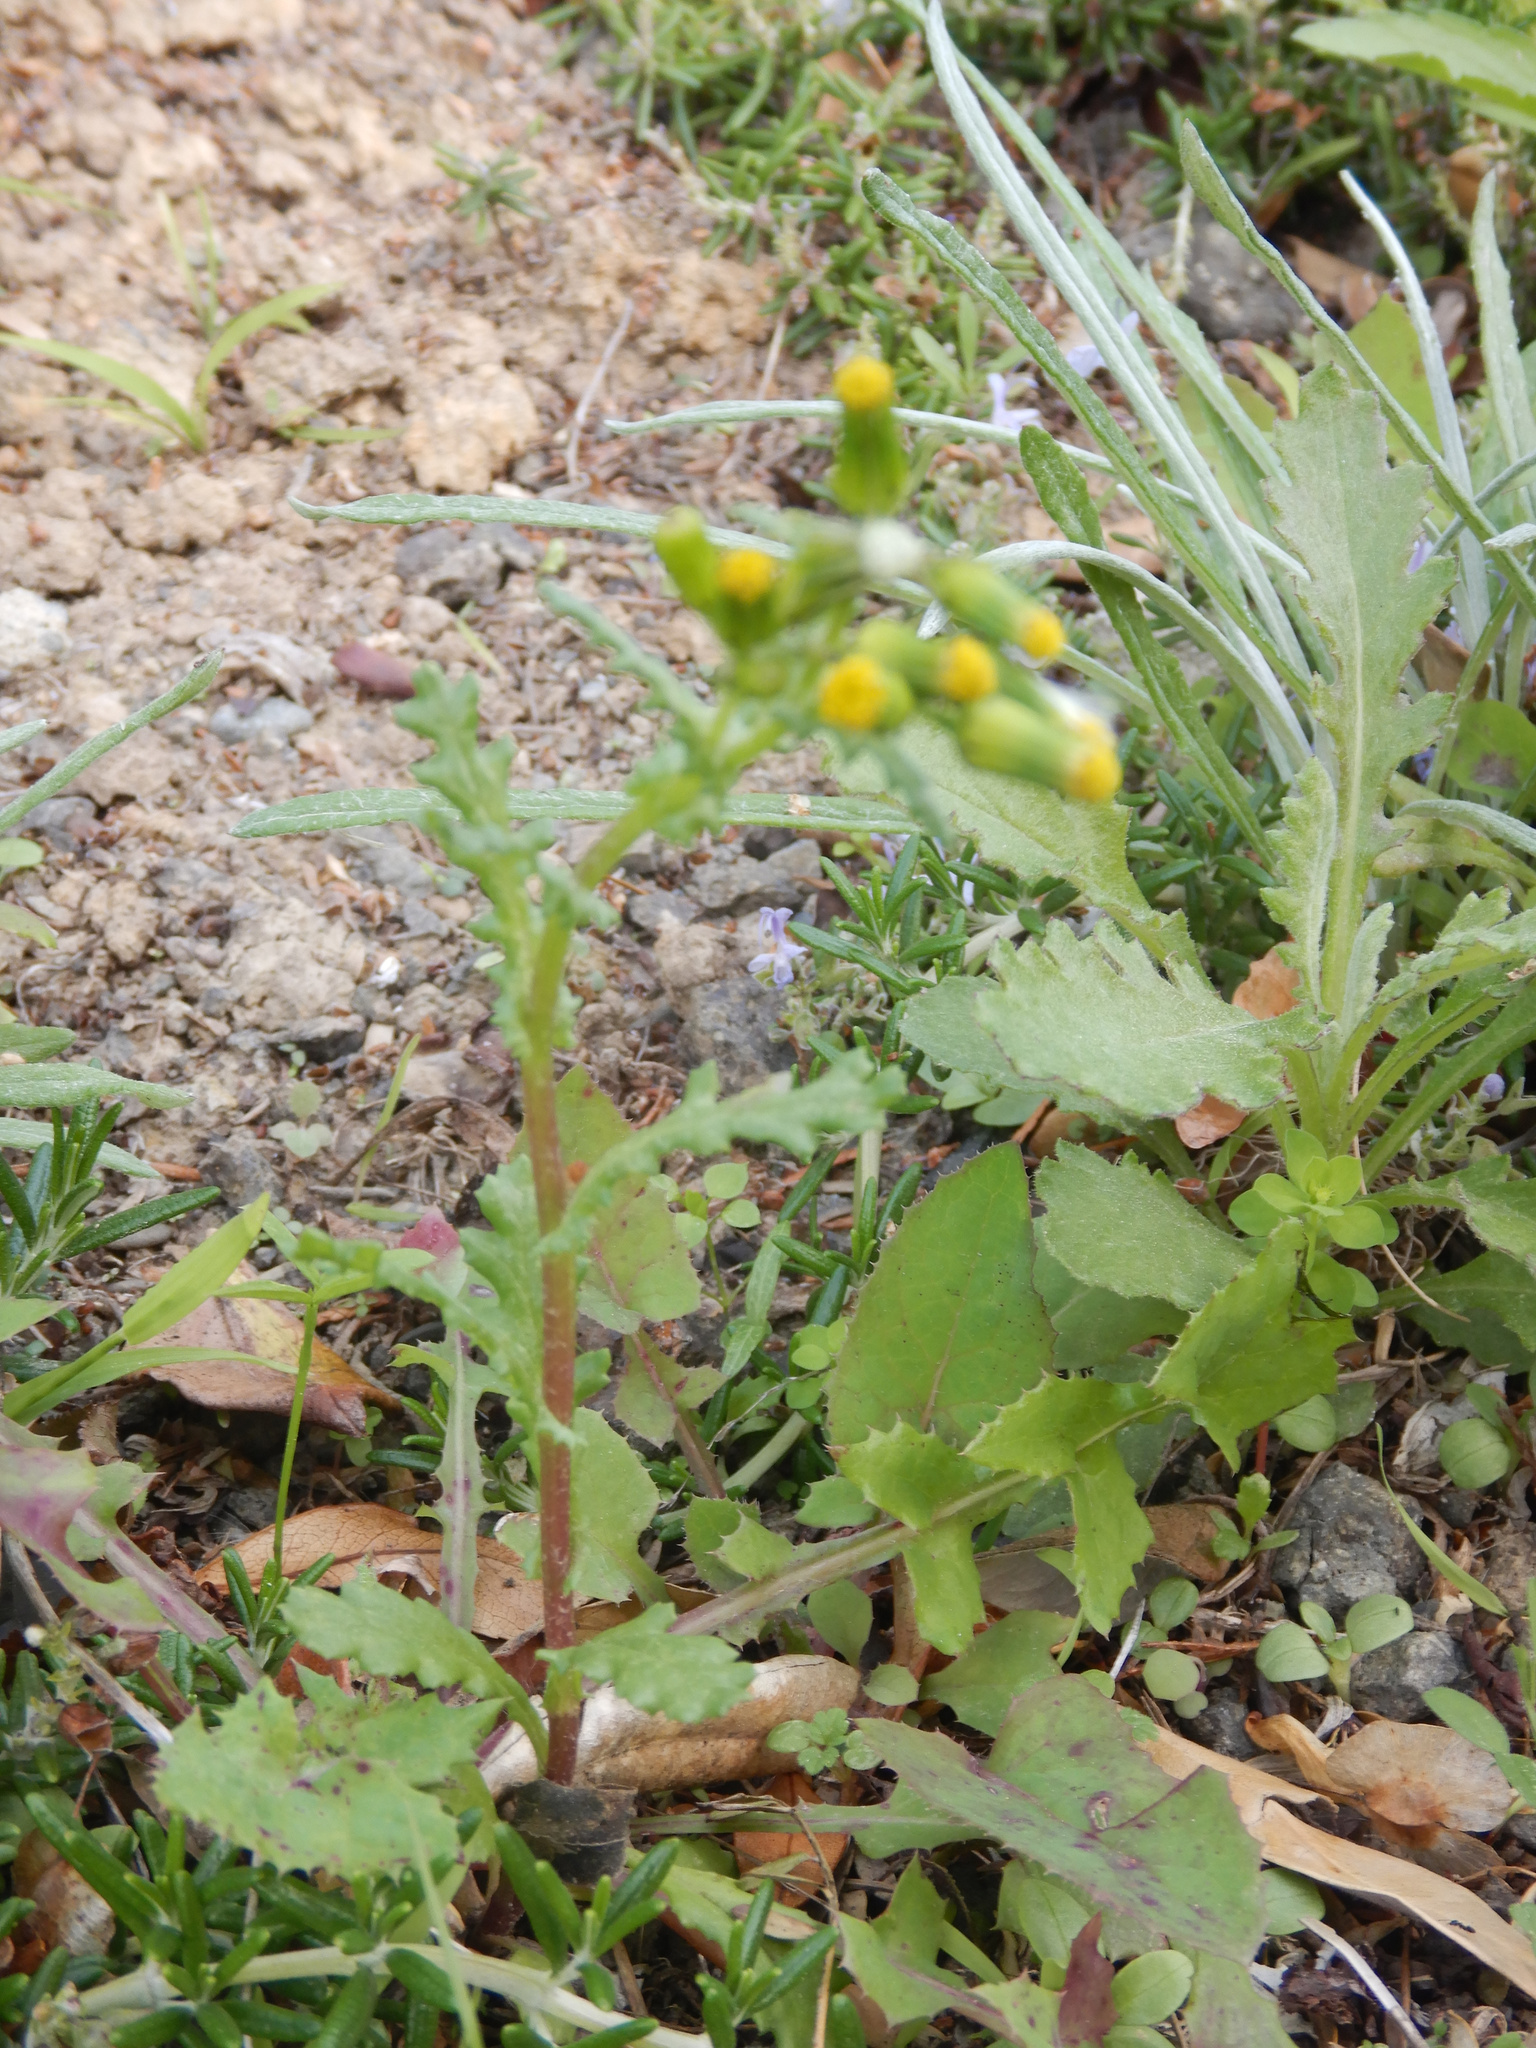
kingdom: Plantae
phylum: Tracheophyta
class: Magnoliopsida
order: Asterales
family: Asteraceae
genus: Senecio
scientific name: Senecio vulgaris
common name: Old-man-in-the-spring
